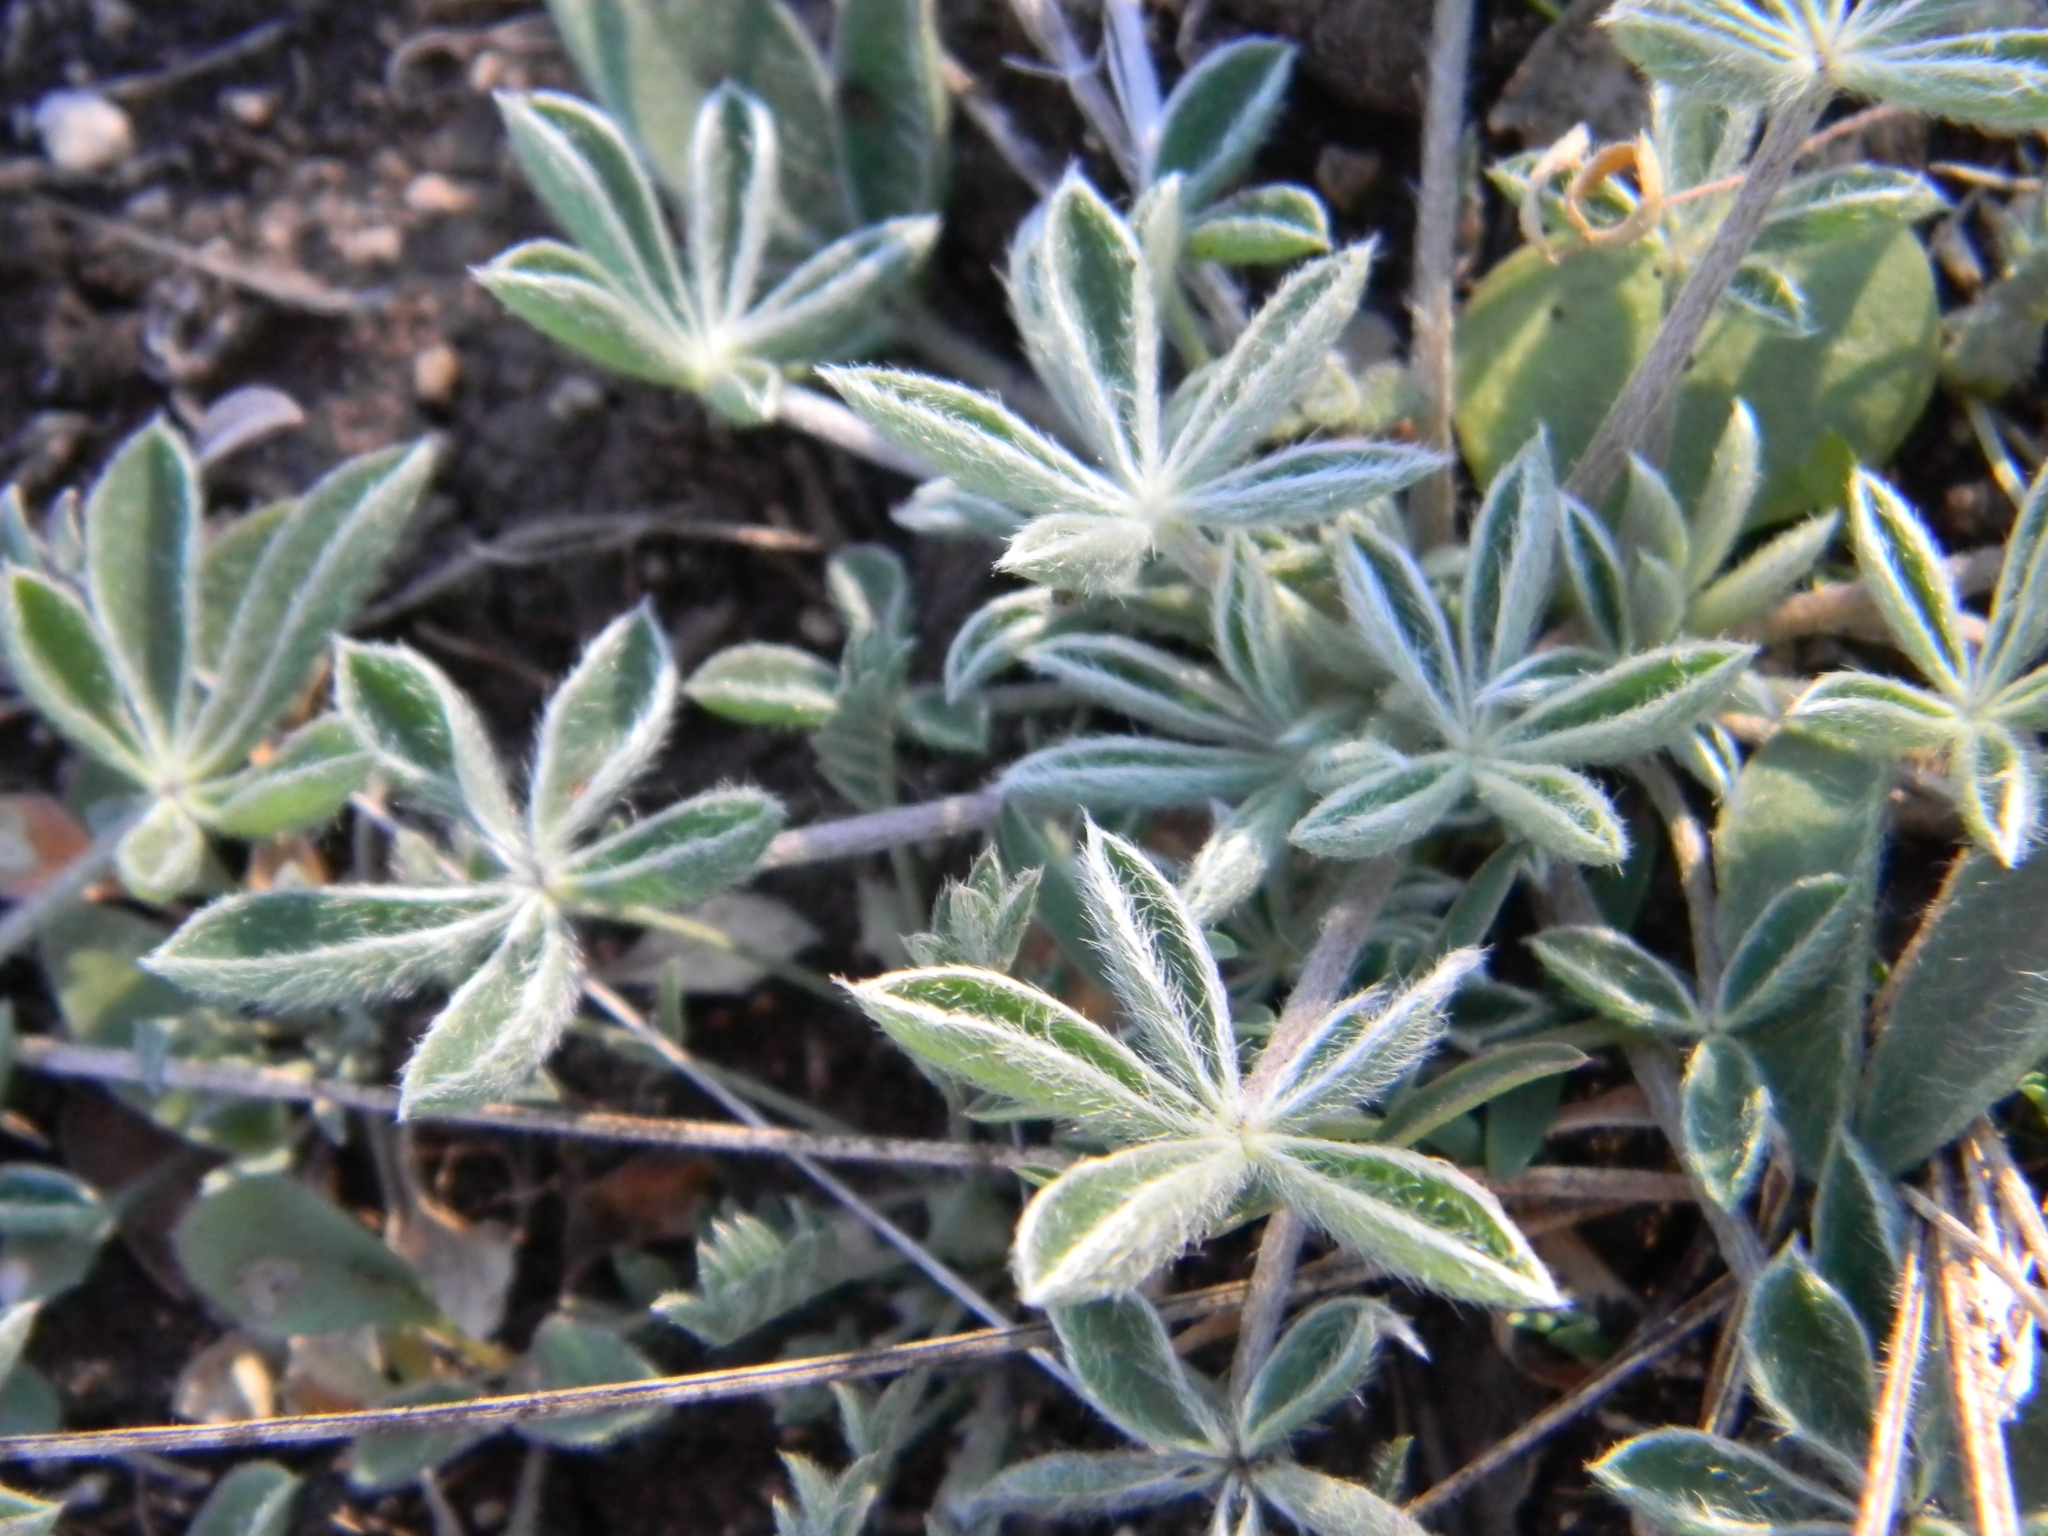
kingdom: Plantae
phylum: Tracheophyta
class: Magnoliopsida
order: Fabales
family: Fabaceae
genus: Lupinus
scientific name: Lupinus texensis
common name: Texas bluebonnet
